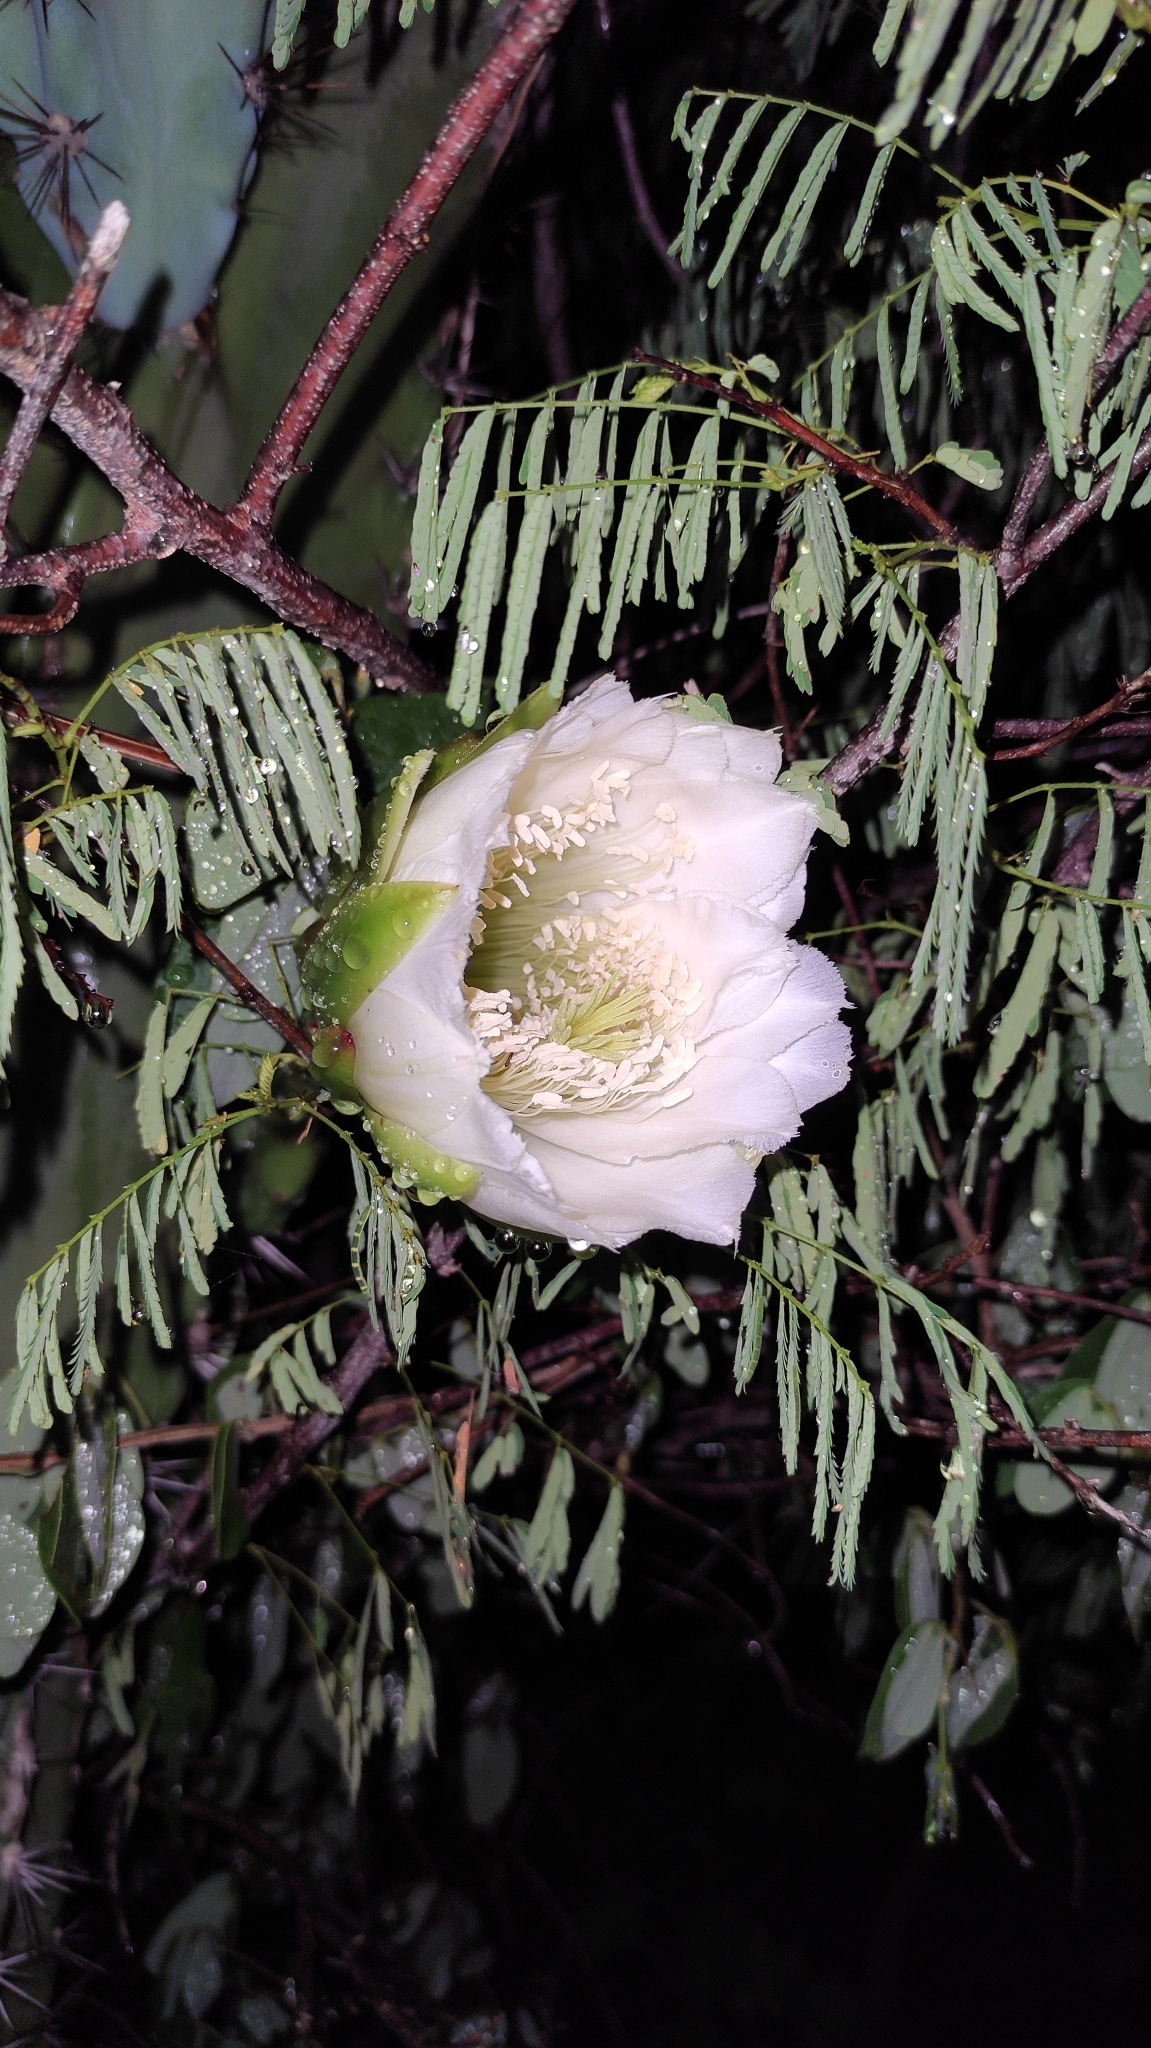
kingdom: Plantae
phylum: Tracheophyta
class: Magnoliopsida
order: Caryophyllales
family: Cactaceae
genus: Cereus
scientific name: Cereus jamacaru
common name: Queen-of-the-night
